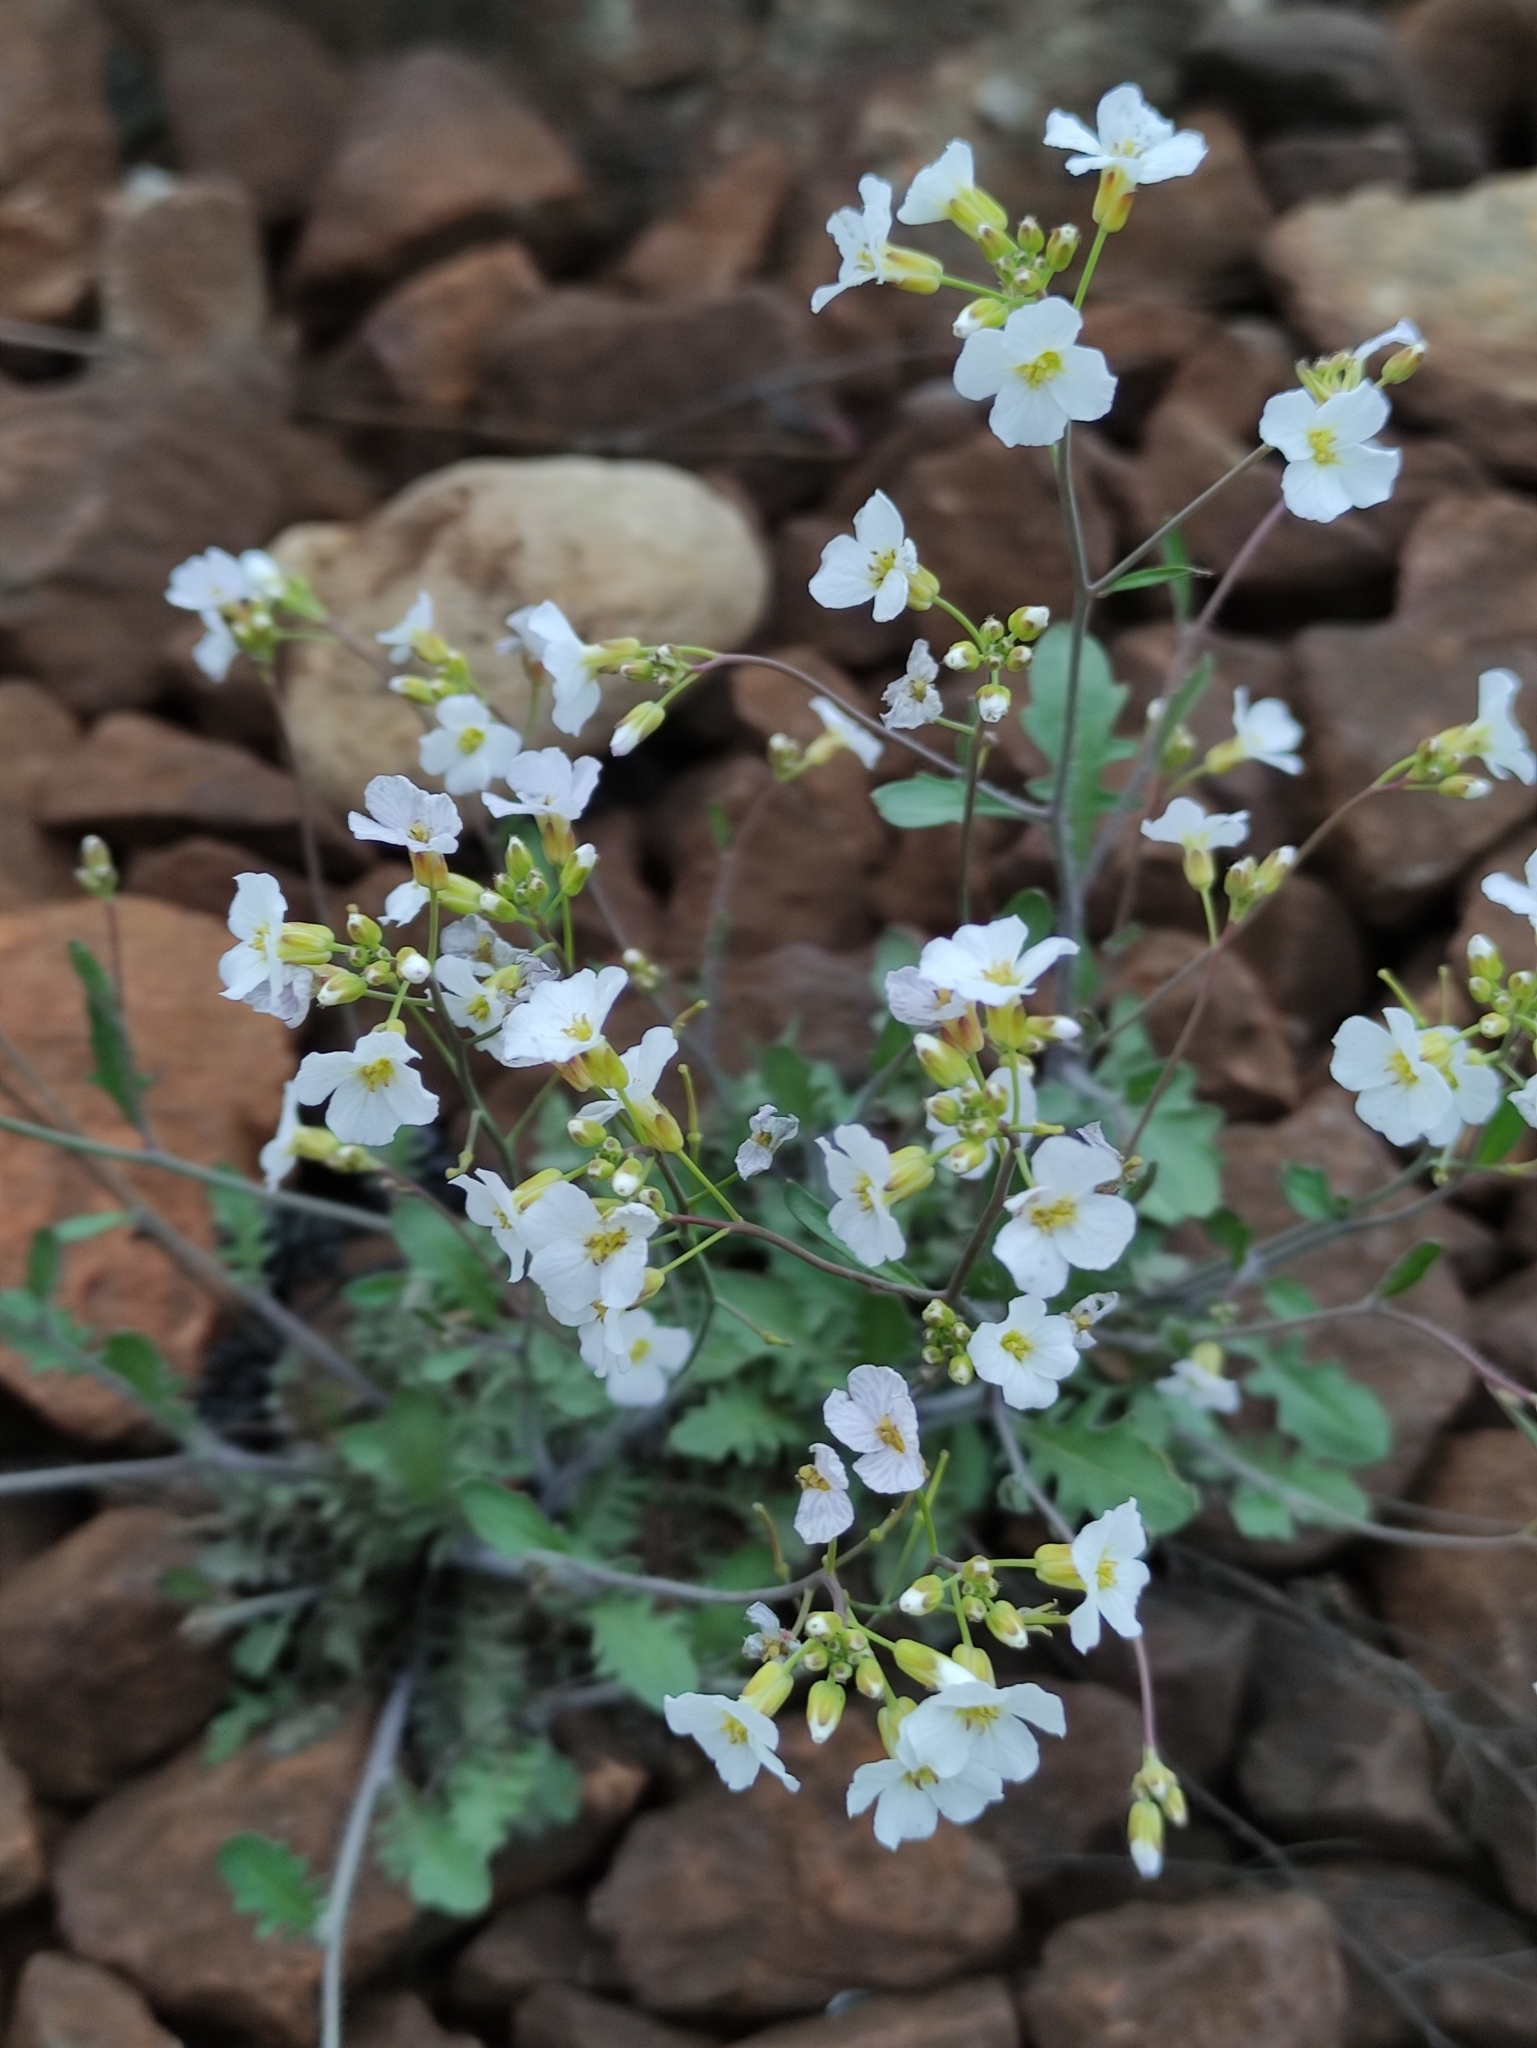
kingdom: Plantae
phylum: Tracheophyta
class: Magnoliopsida
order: Brassicales
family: Brassicaceae
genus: Arabidopsis
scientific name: Arabidopsis arenosa
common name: Sand rock-cress
